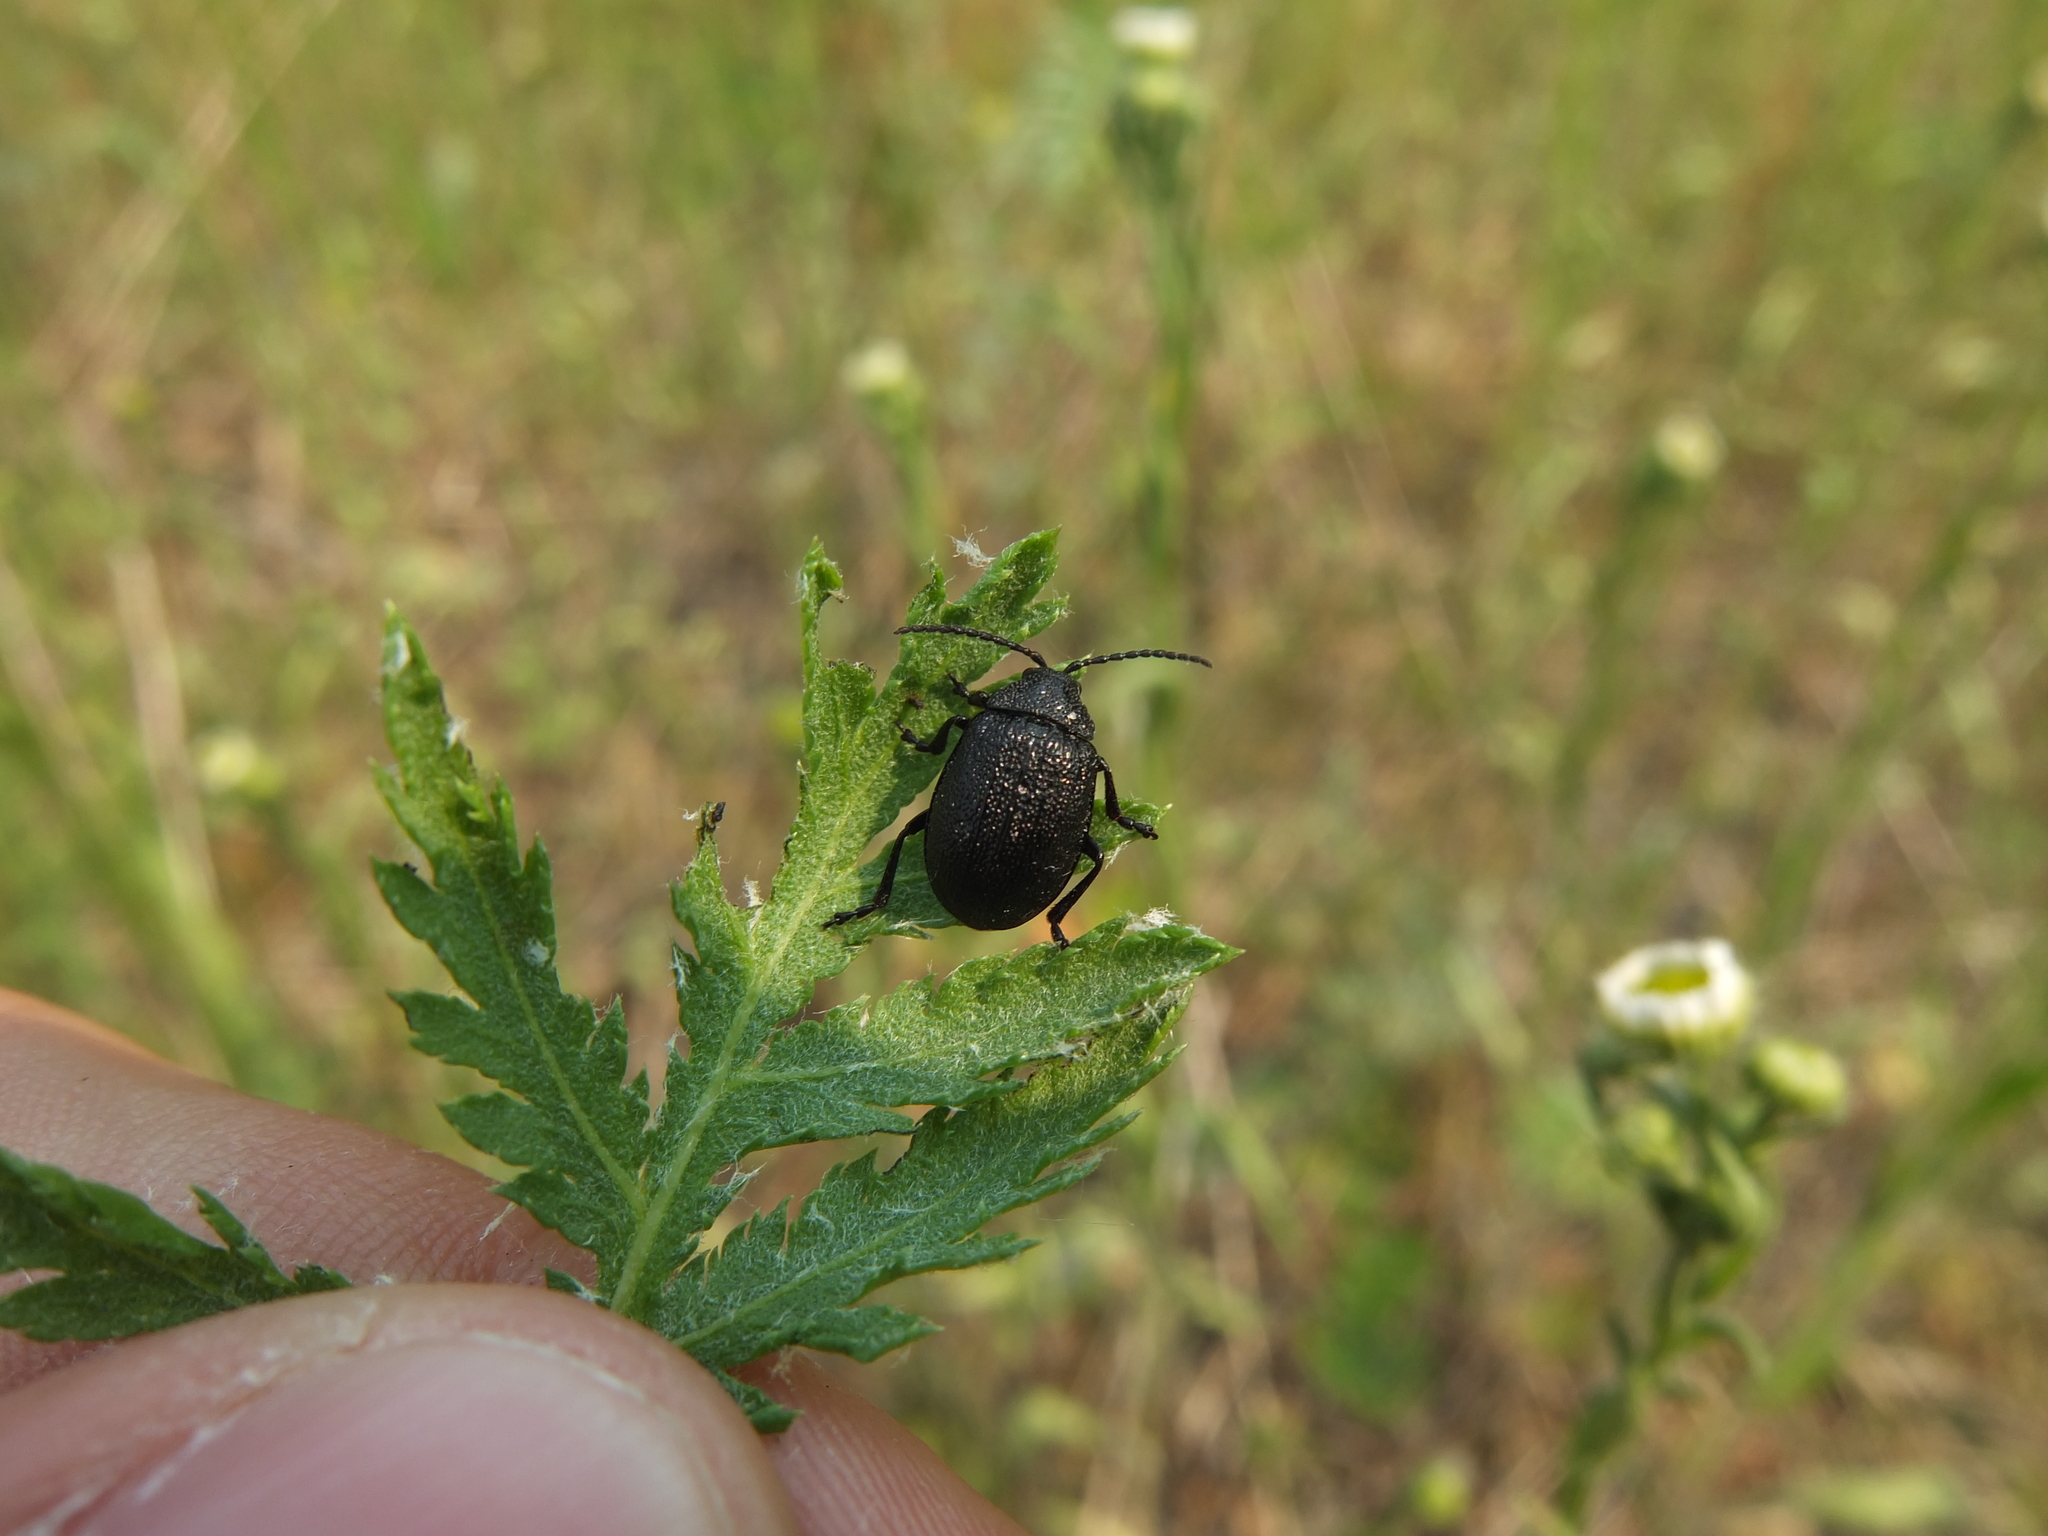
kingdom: Animalia
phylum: Arthropoda
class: Insecta
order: Coleoptera
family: Chrysomelidae
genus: Galeruca
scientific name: Galeruca tanaceti
